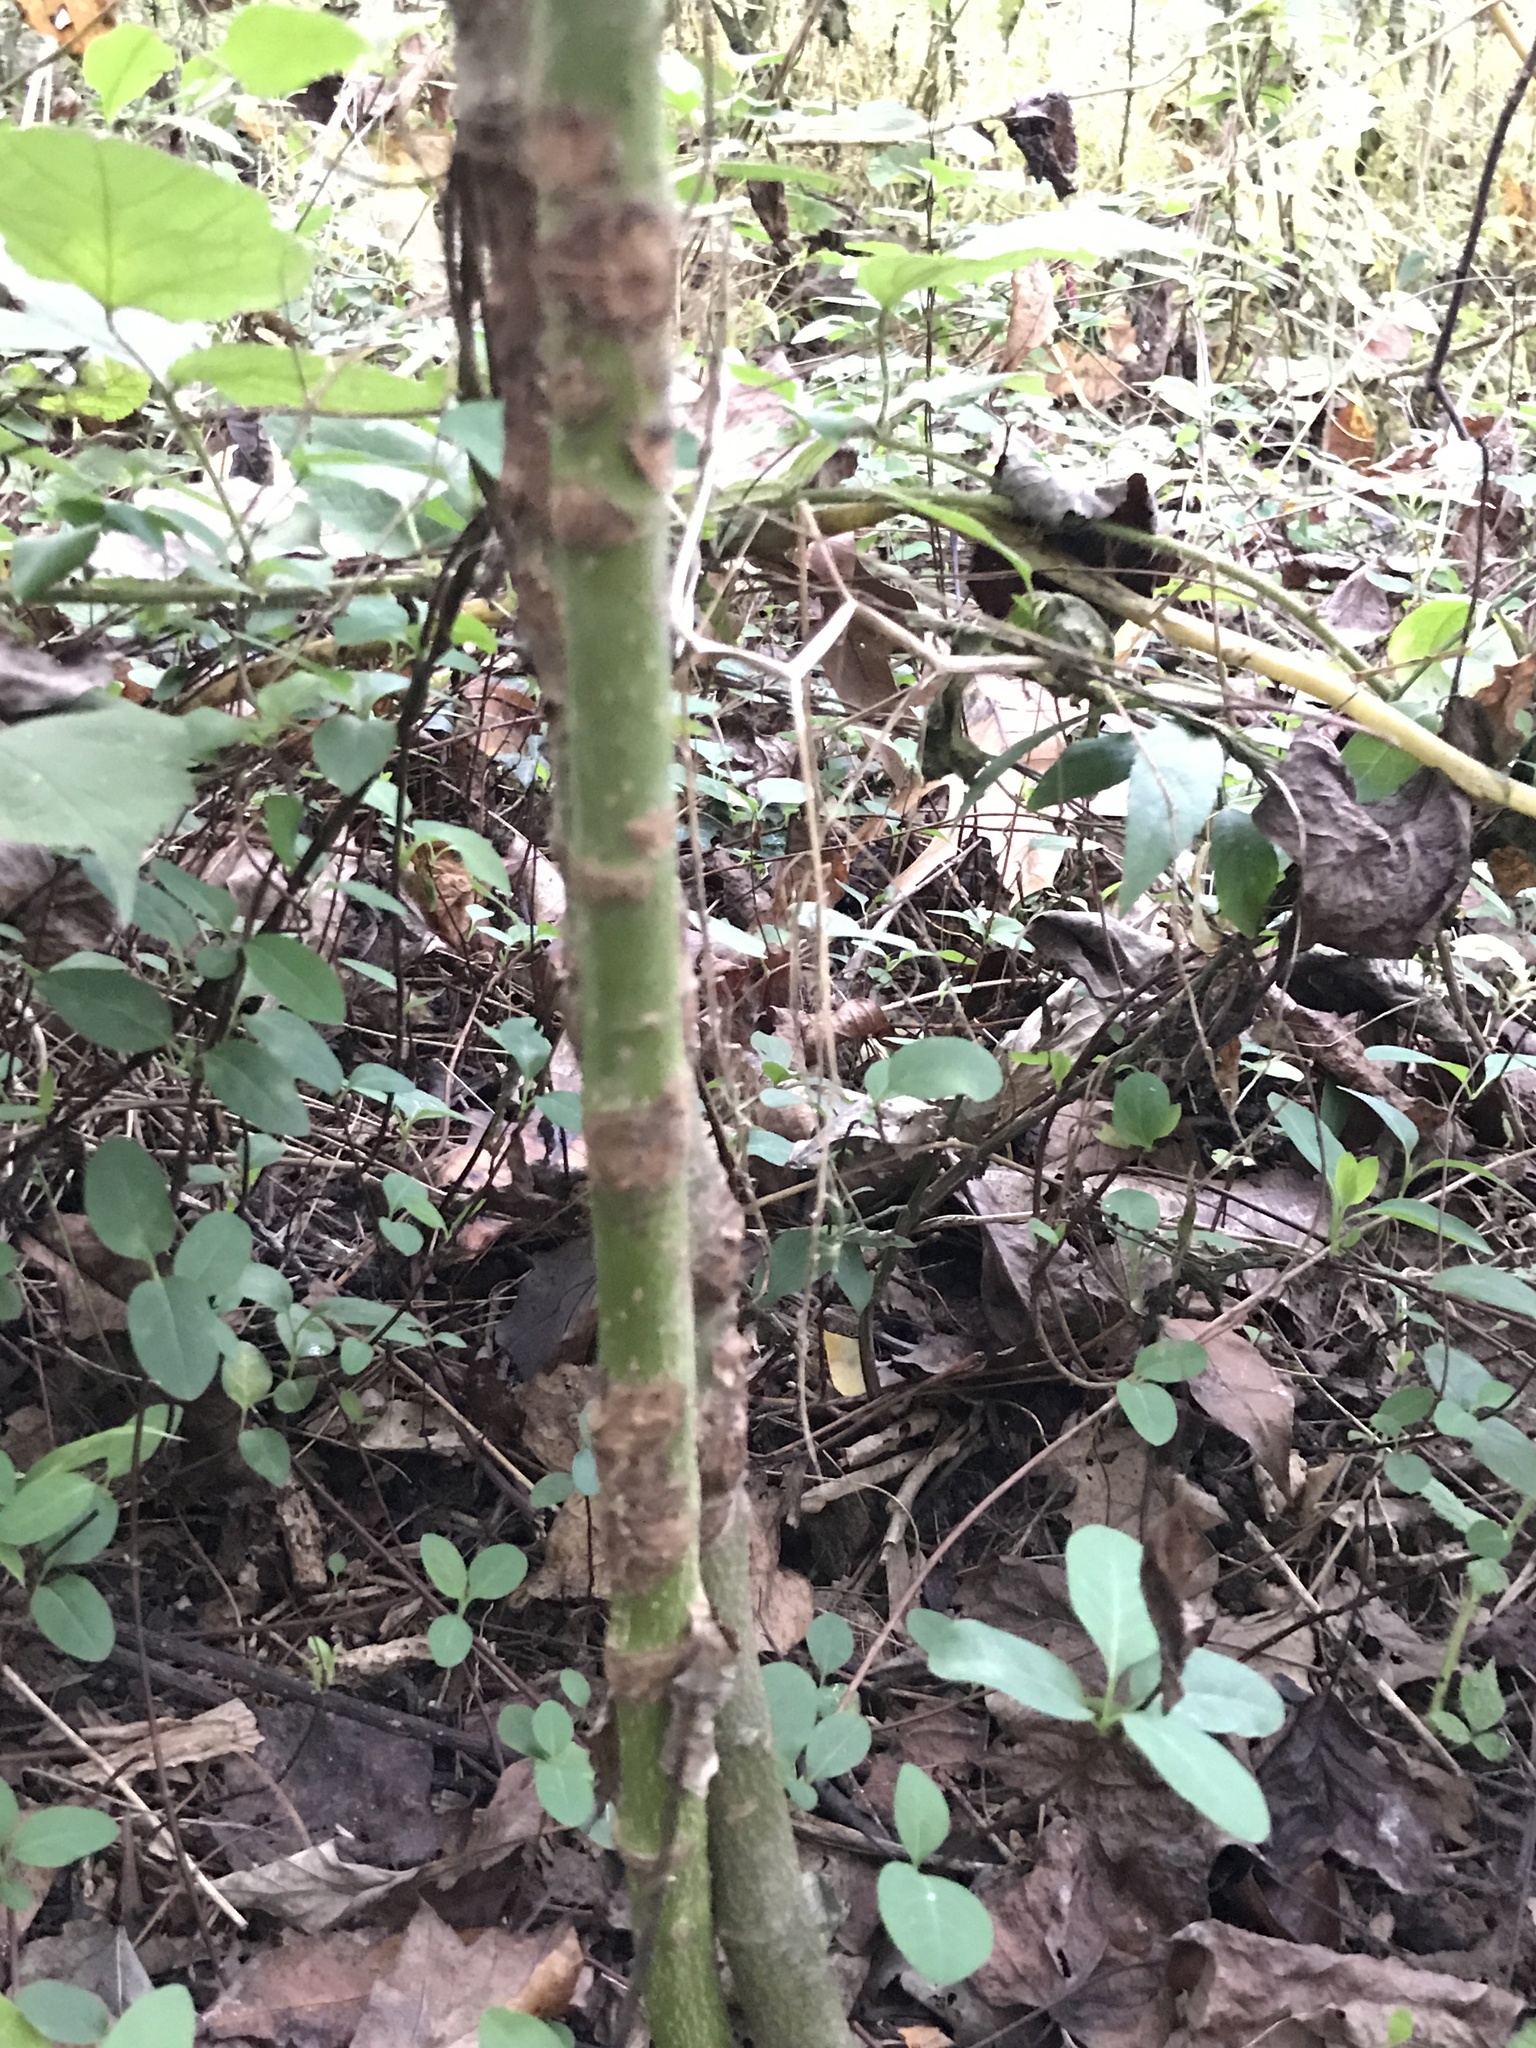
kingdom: Plantae
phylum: Tracheophyta
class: Magnoliopsida
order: Cornales
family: Cornaceae
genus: Cornus
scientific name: Cornus alternifolia
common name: Pagoda dogwood
